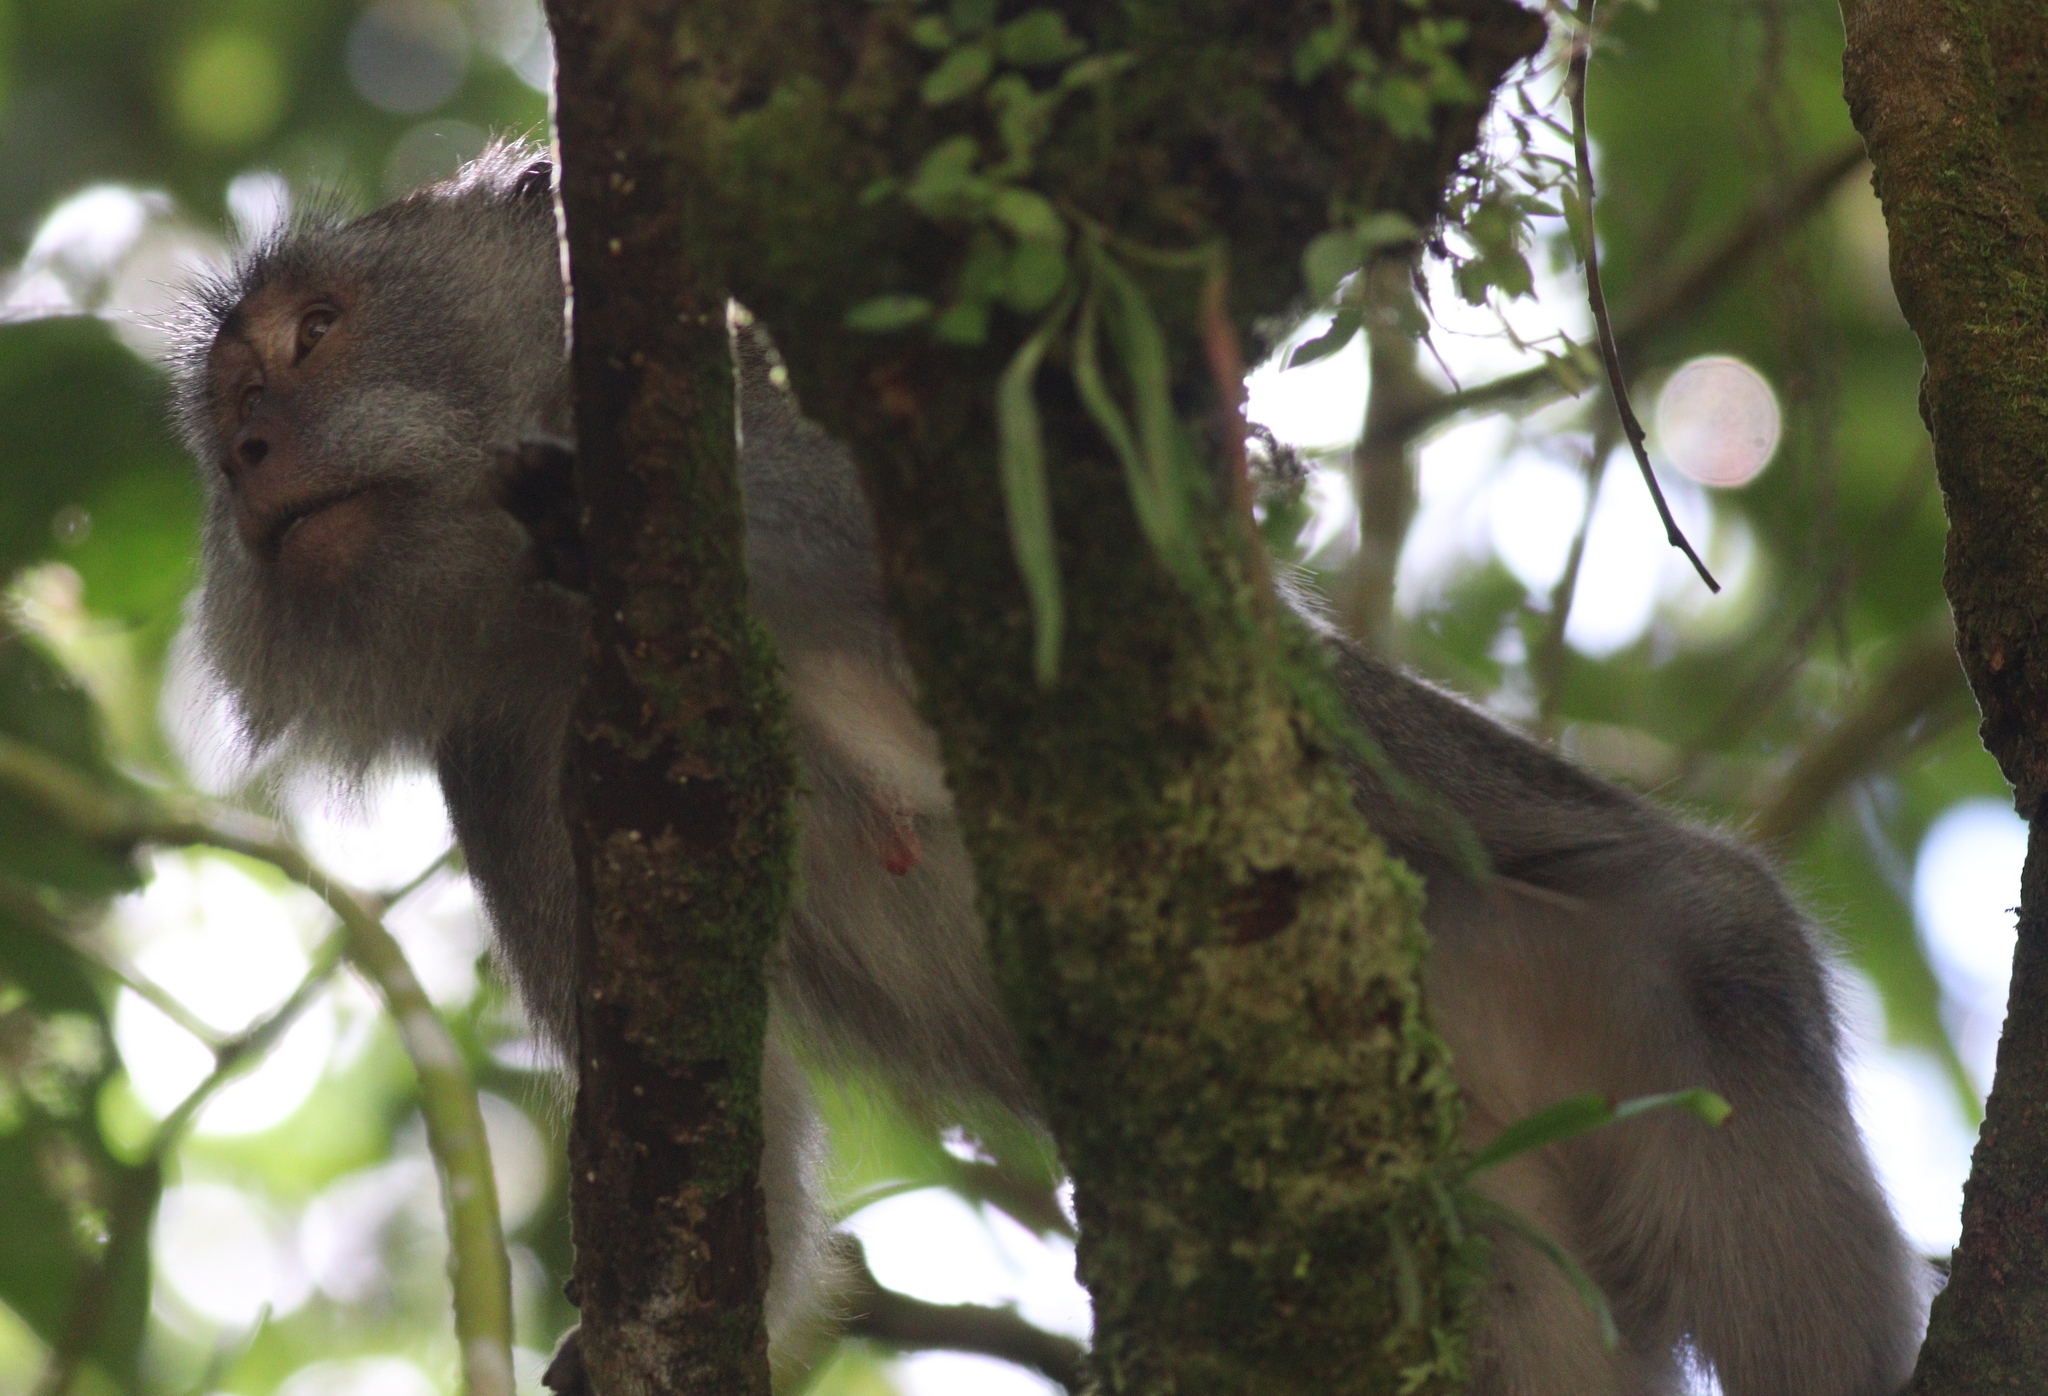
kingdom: Animalia
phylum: Chordata
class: Mammalia
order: Primates
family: Cercopithecidae
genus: Macaca
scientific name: Macaca fascicularis
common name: Crab-eating macaque
